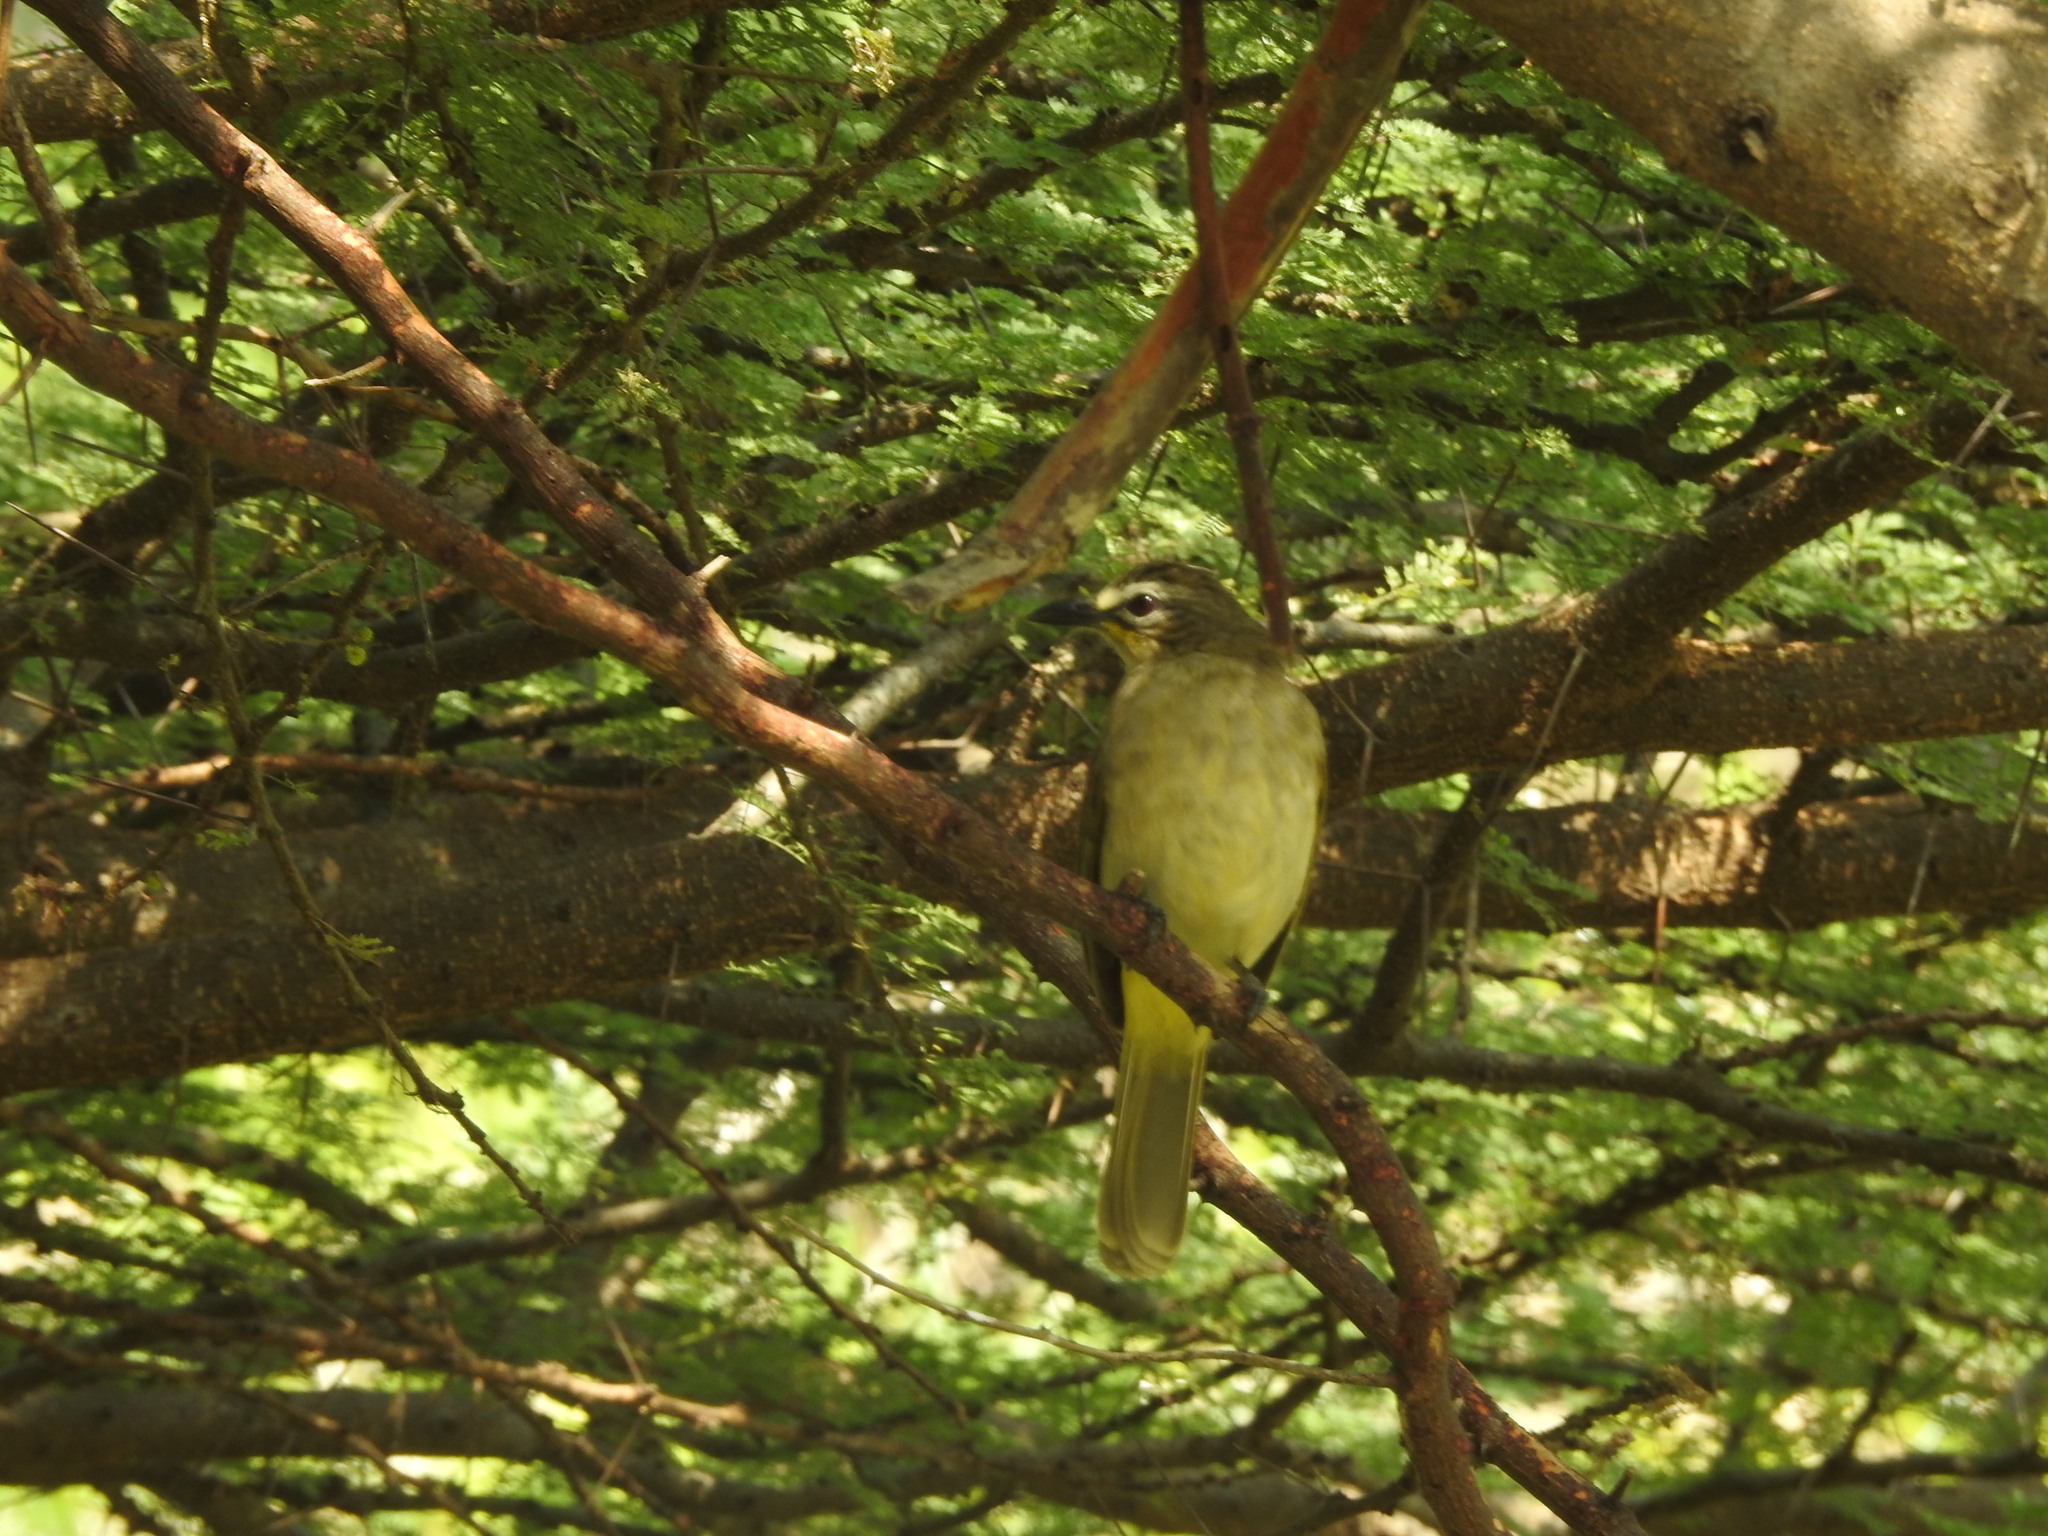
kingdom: Animalia
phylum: Chordata
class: Aves
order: Passeriformes
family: Pycnonotidae
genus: Pycnonotus
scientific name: Pycnonotus luteolus
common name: White-browed bulbul
